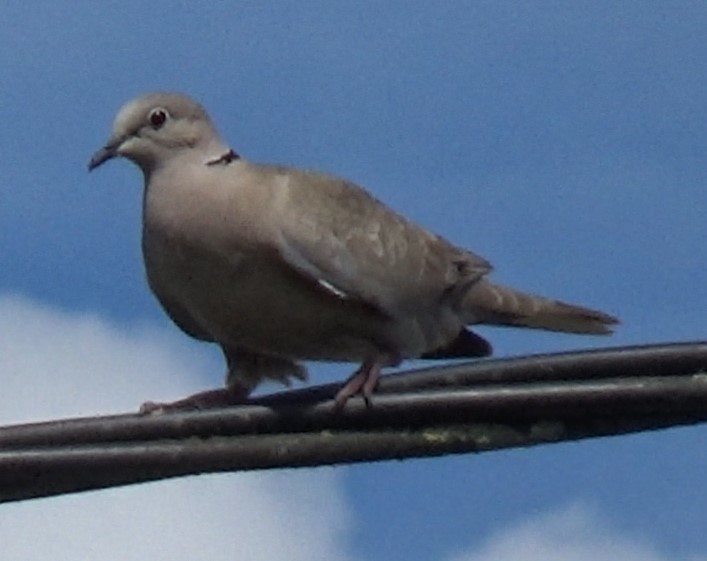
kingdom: Animalia
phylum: Chordata
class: Aves
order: Columbiformes
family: Columbidae
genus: Streptopelia
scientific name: Streptopelia decaocto
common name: Eurasian collared dove
